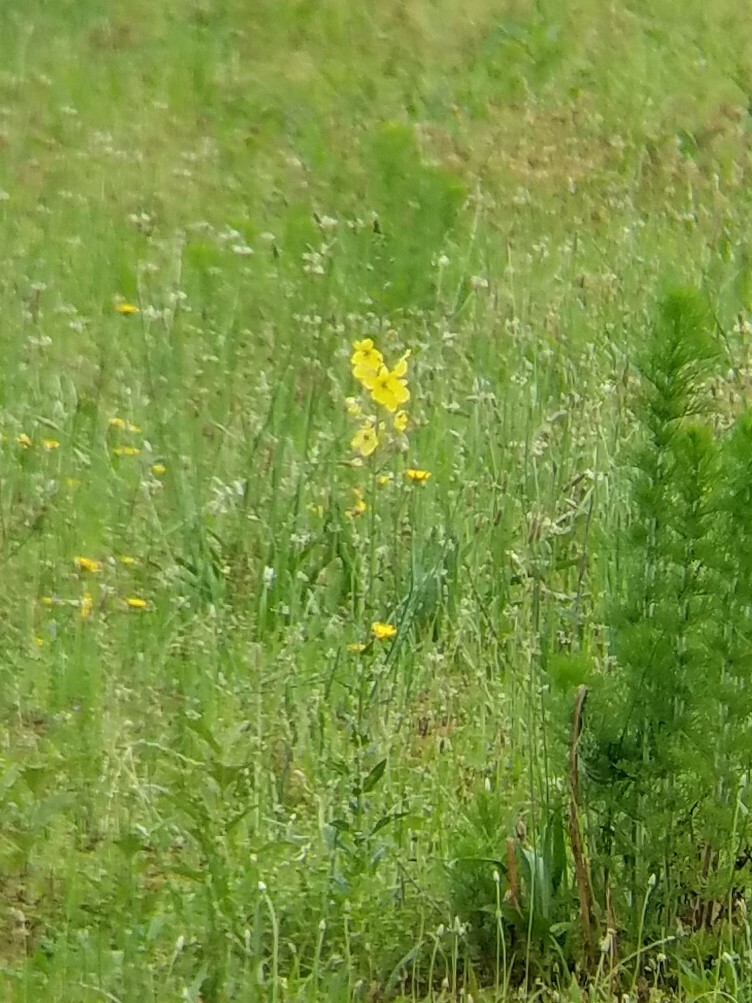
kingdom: Plantae
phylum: Tracheophyta
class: Magnoliopsida
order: Lamiales
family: Scrophulariaceae
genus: Verbascum
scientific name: Verbascum blattaria
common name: Moth mullein
